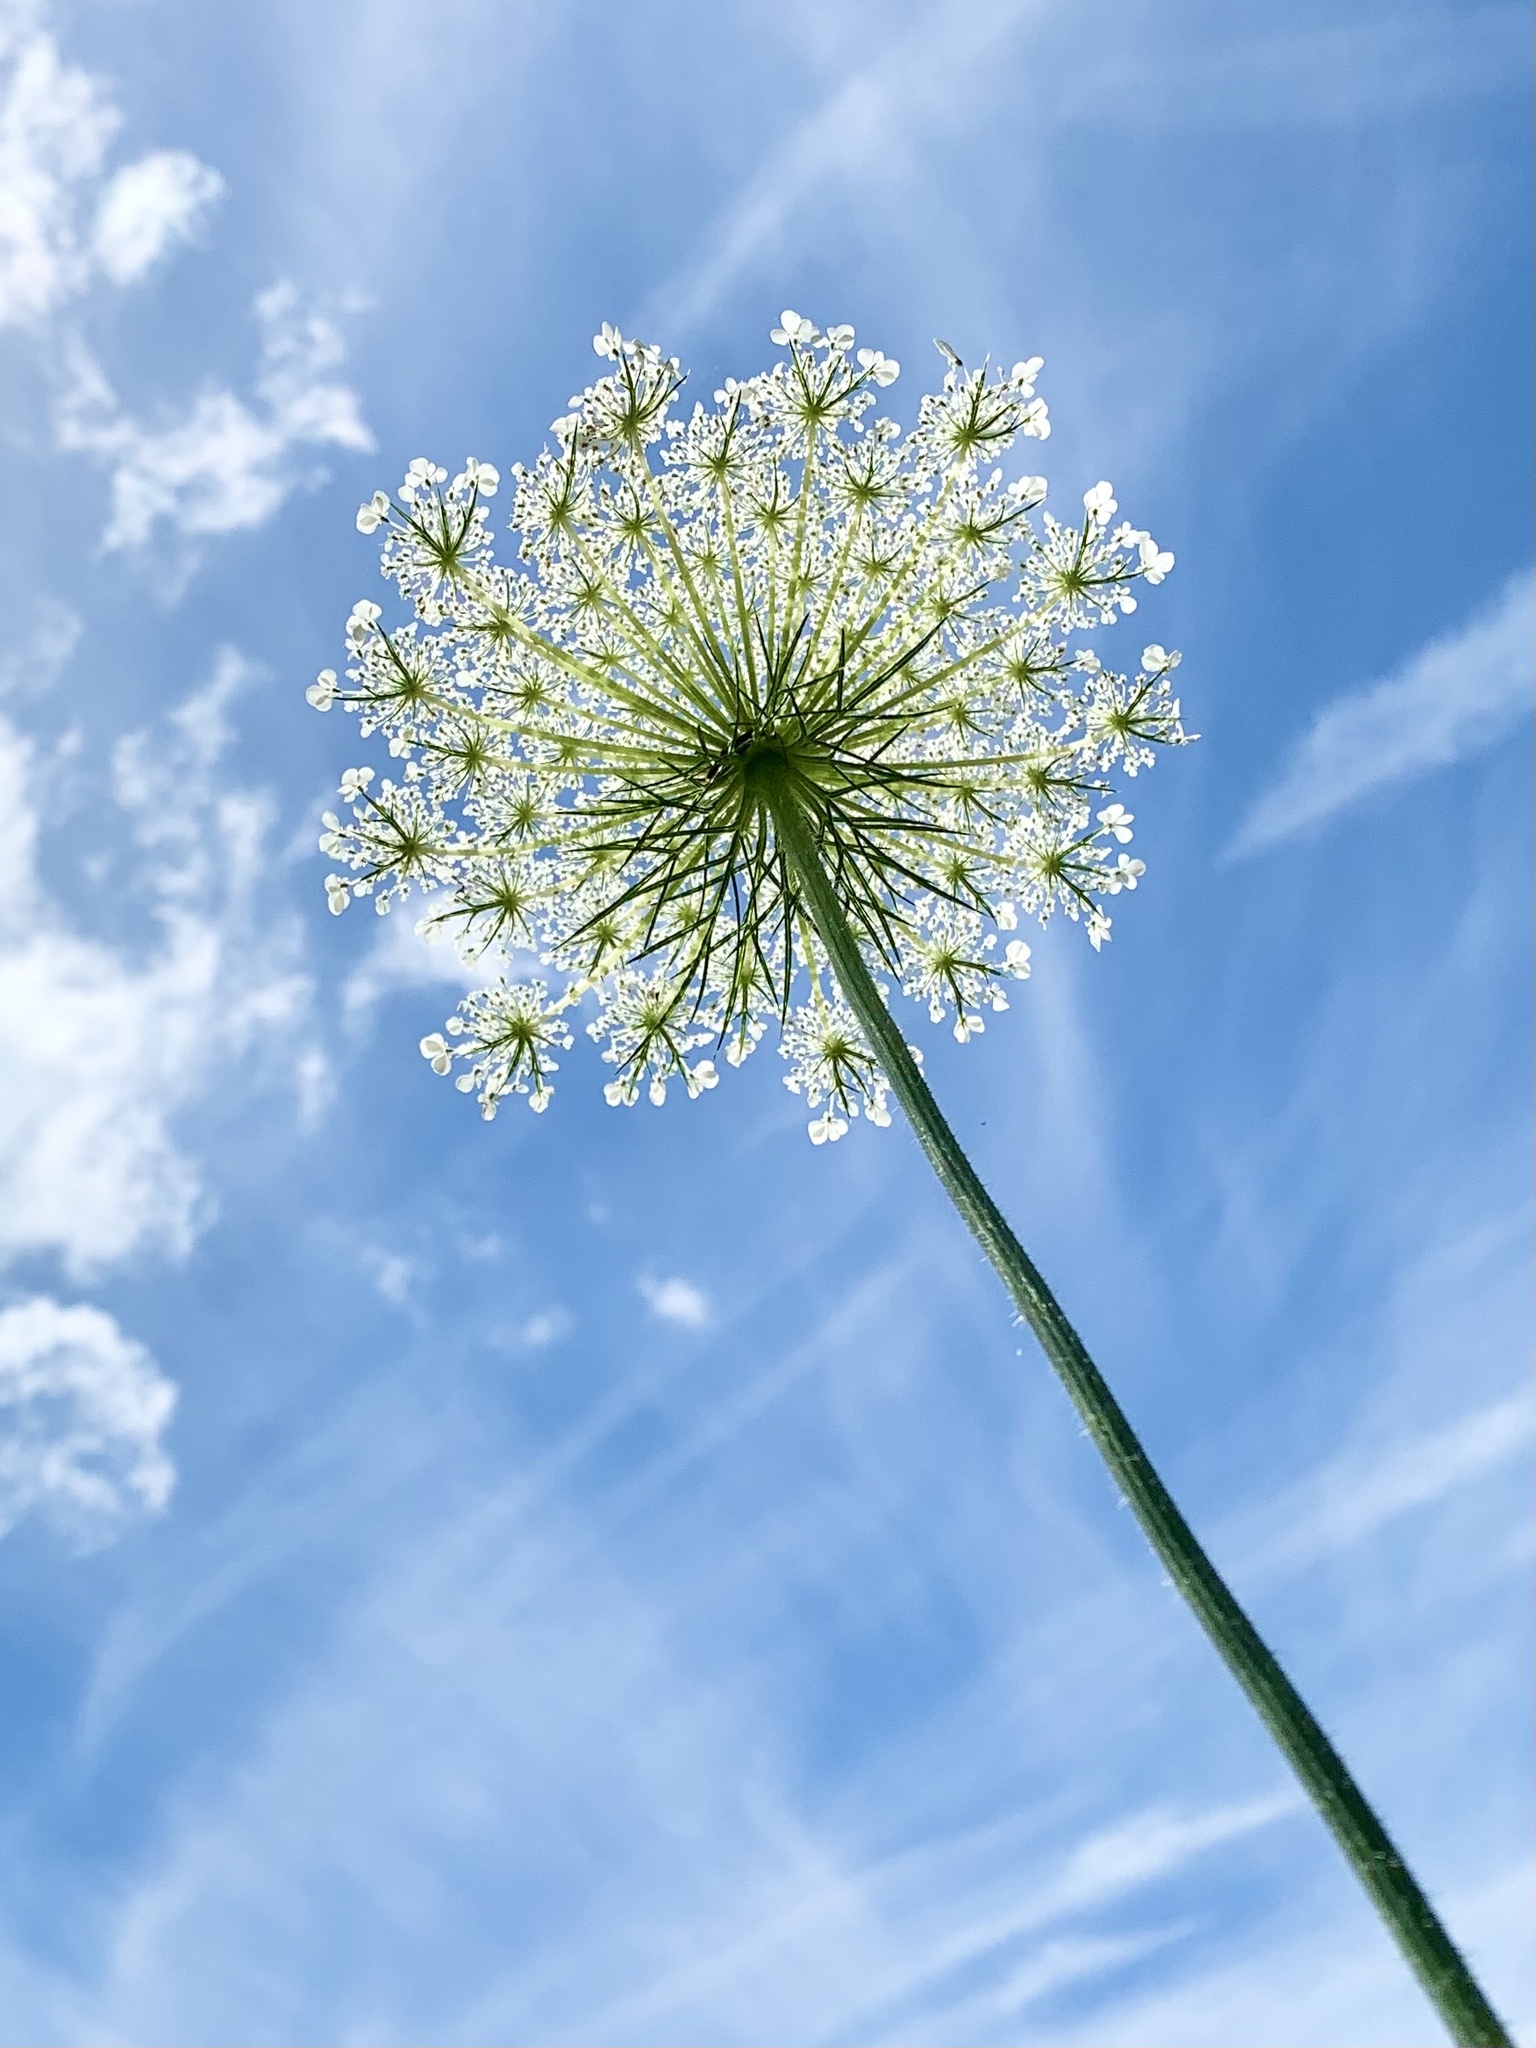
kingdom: Plantae
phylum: Tracheophyta
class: Magnoliopsida
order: Apiales
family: Apiaceae
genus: Daucus
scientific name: Daucus carota
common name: Wild carrot
